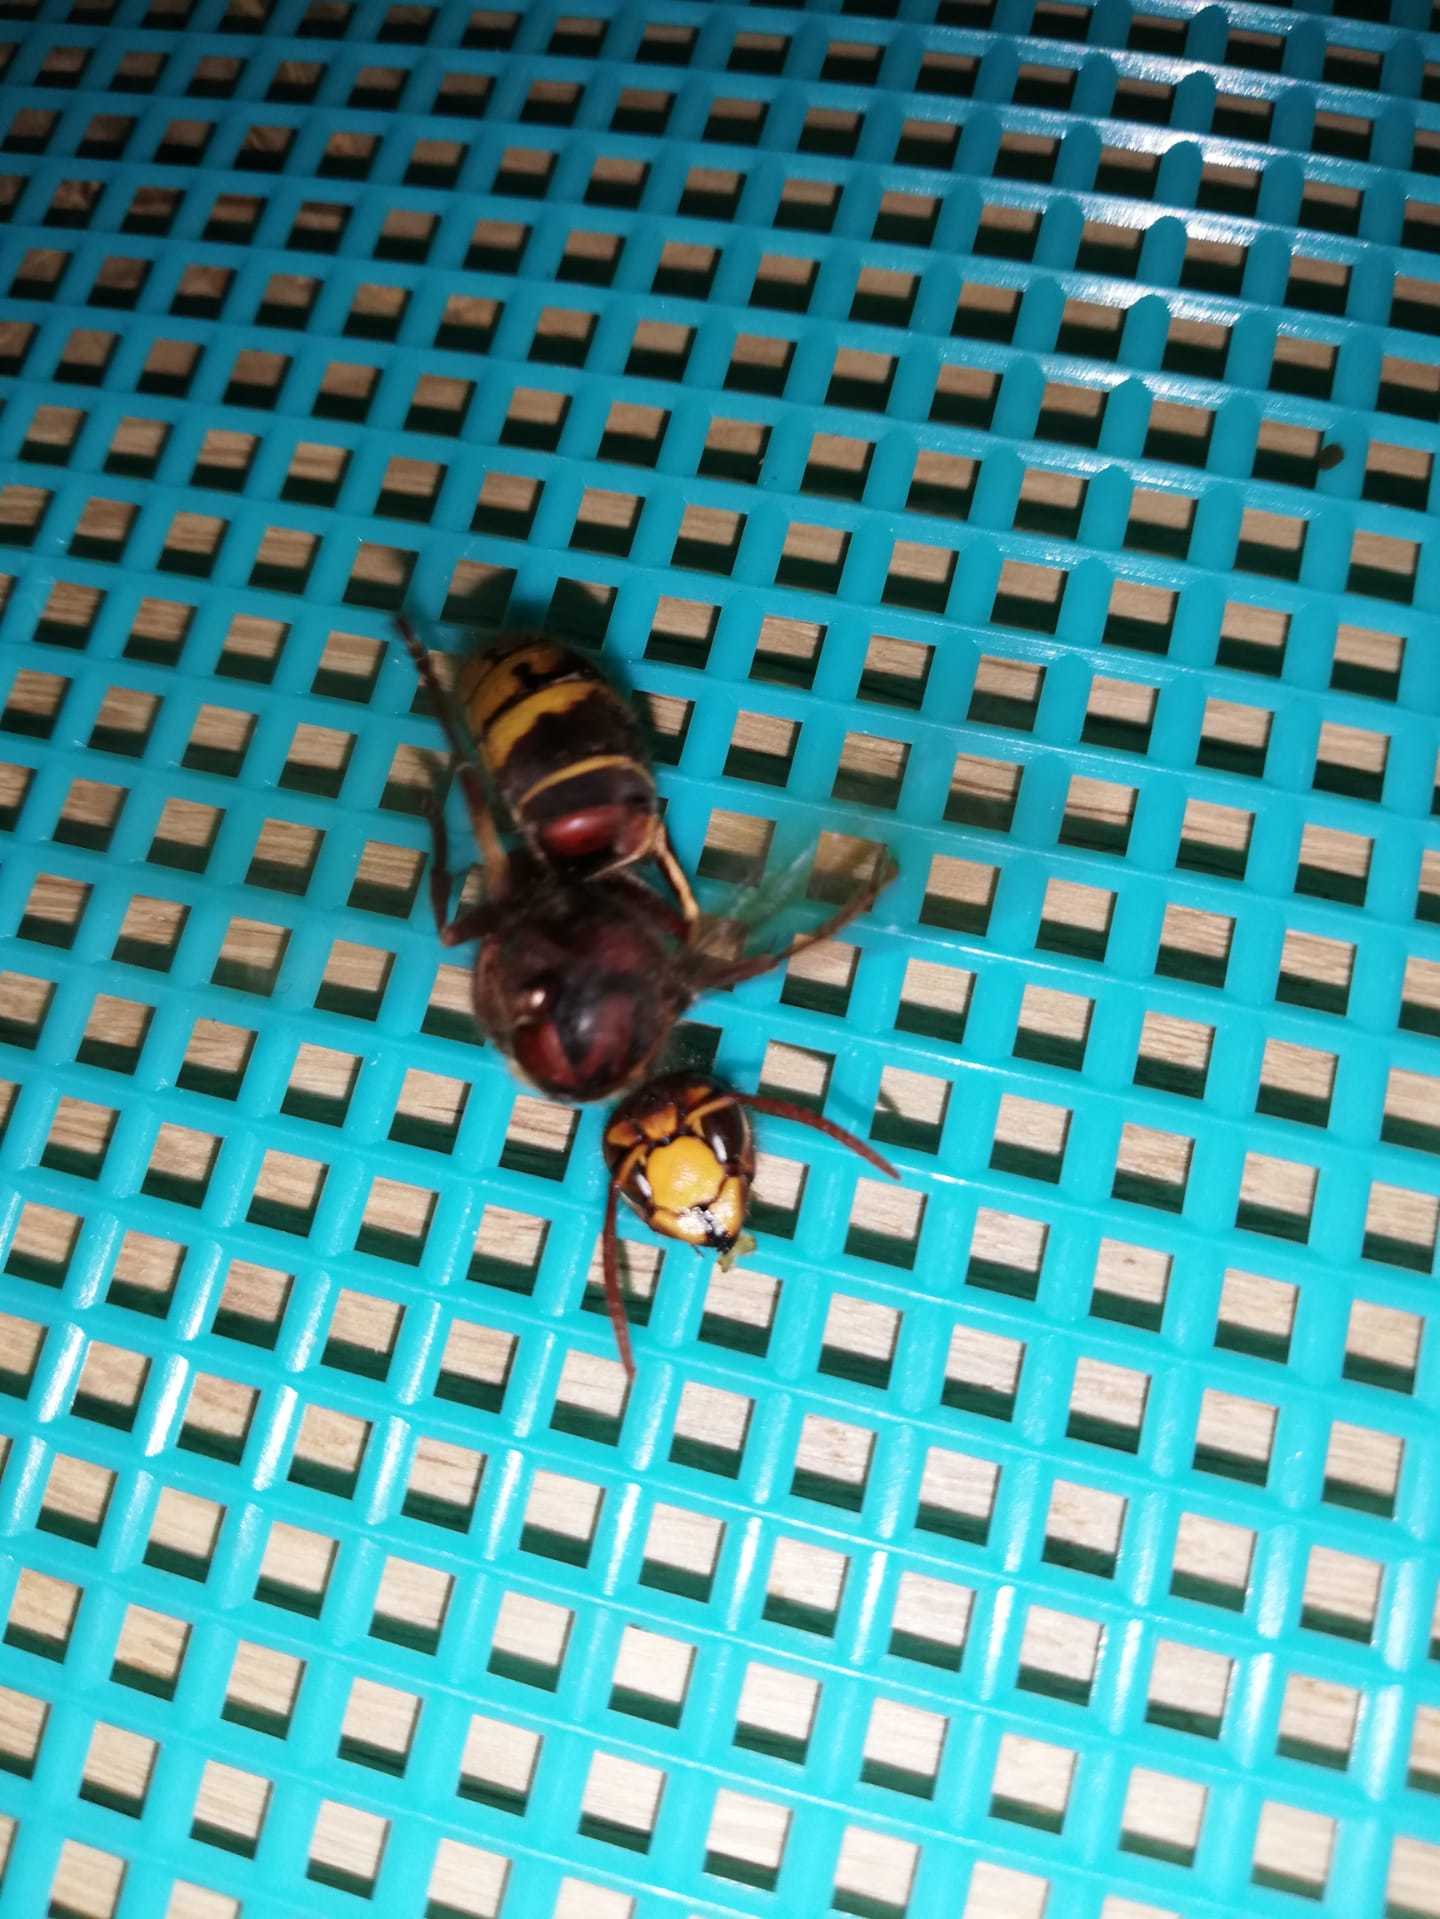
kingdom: Animalia
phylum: Arthropoda
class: Insecta
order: Hymenoptera
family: Vespidae
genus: Vespa
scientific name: Vespa crabro
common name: Hornet
